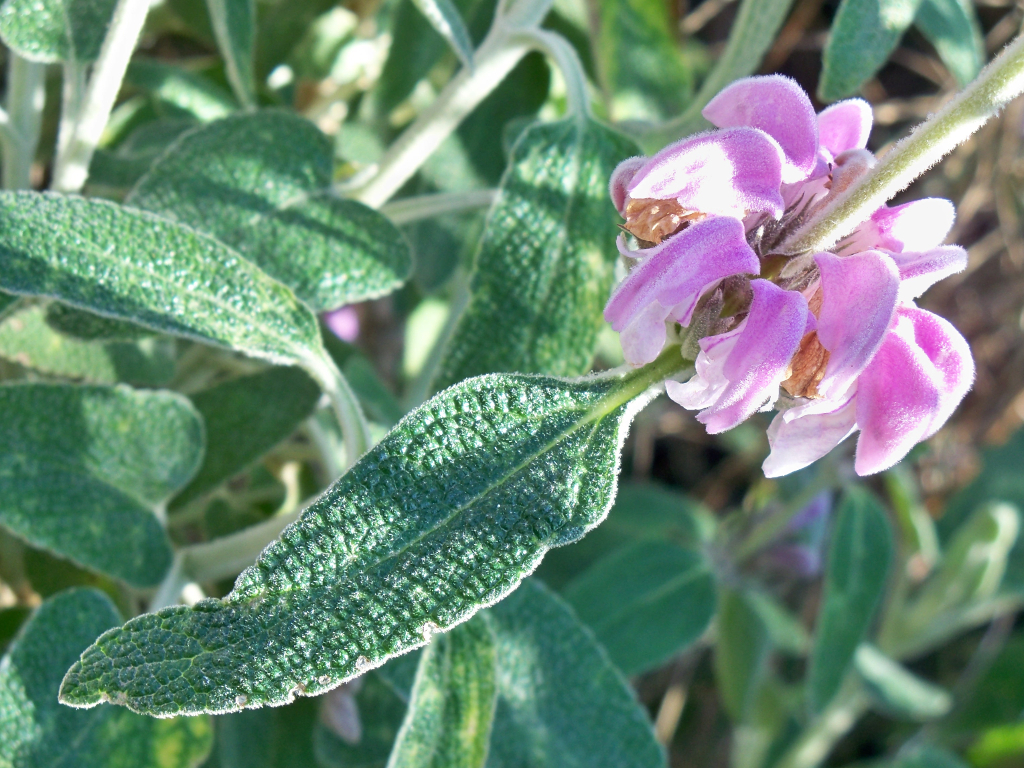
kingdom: Plantae
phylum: Tracheophyta
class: Magnoliopsida
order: Lamiales
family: Lamiaceae
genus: Phlomis
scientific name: Phlomis purpurea
